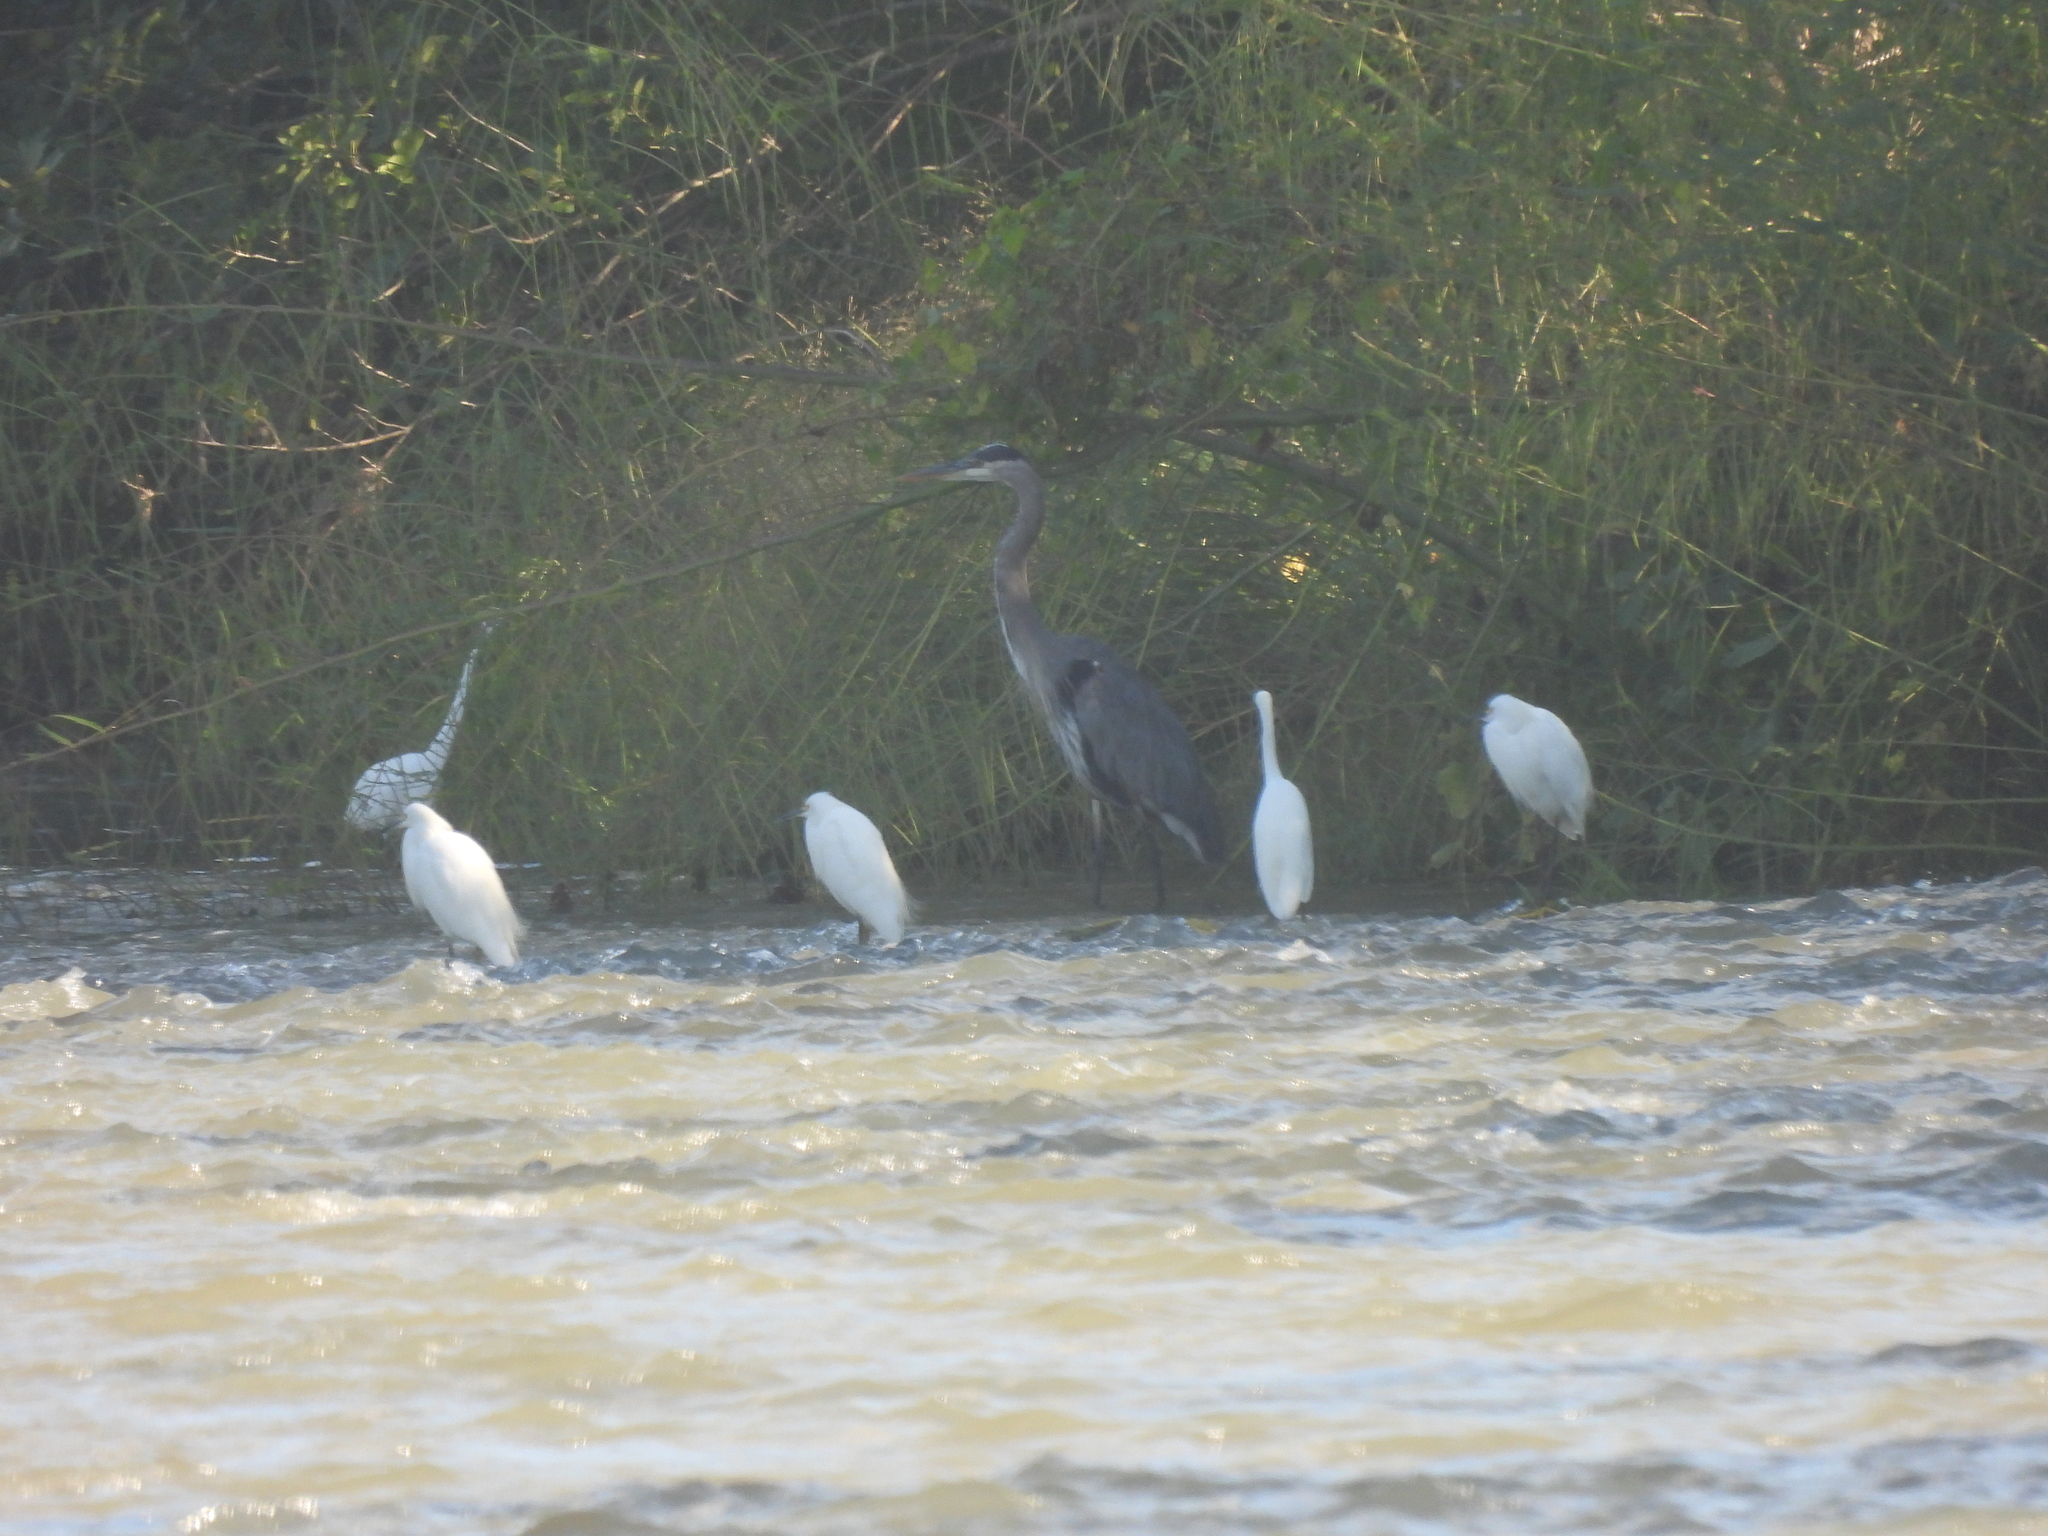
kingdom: Animalia
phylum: Chordata
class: Aves
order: Pelecaniformes
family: Ardeidae
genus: Ardea
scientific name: Ardea herodias
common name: Great blue heron
